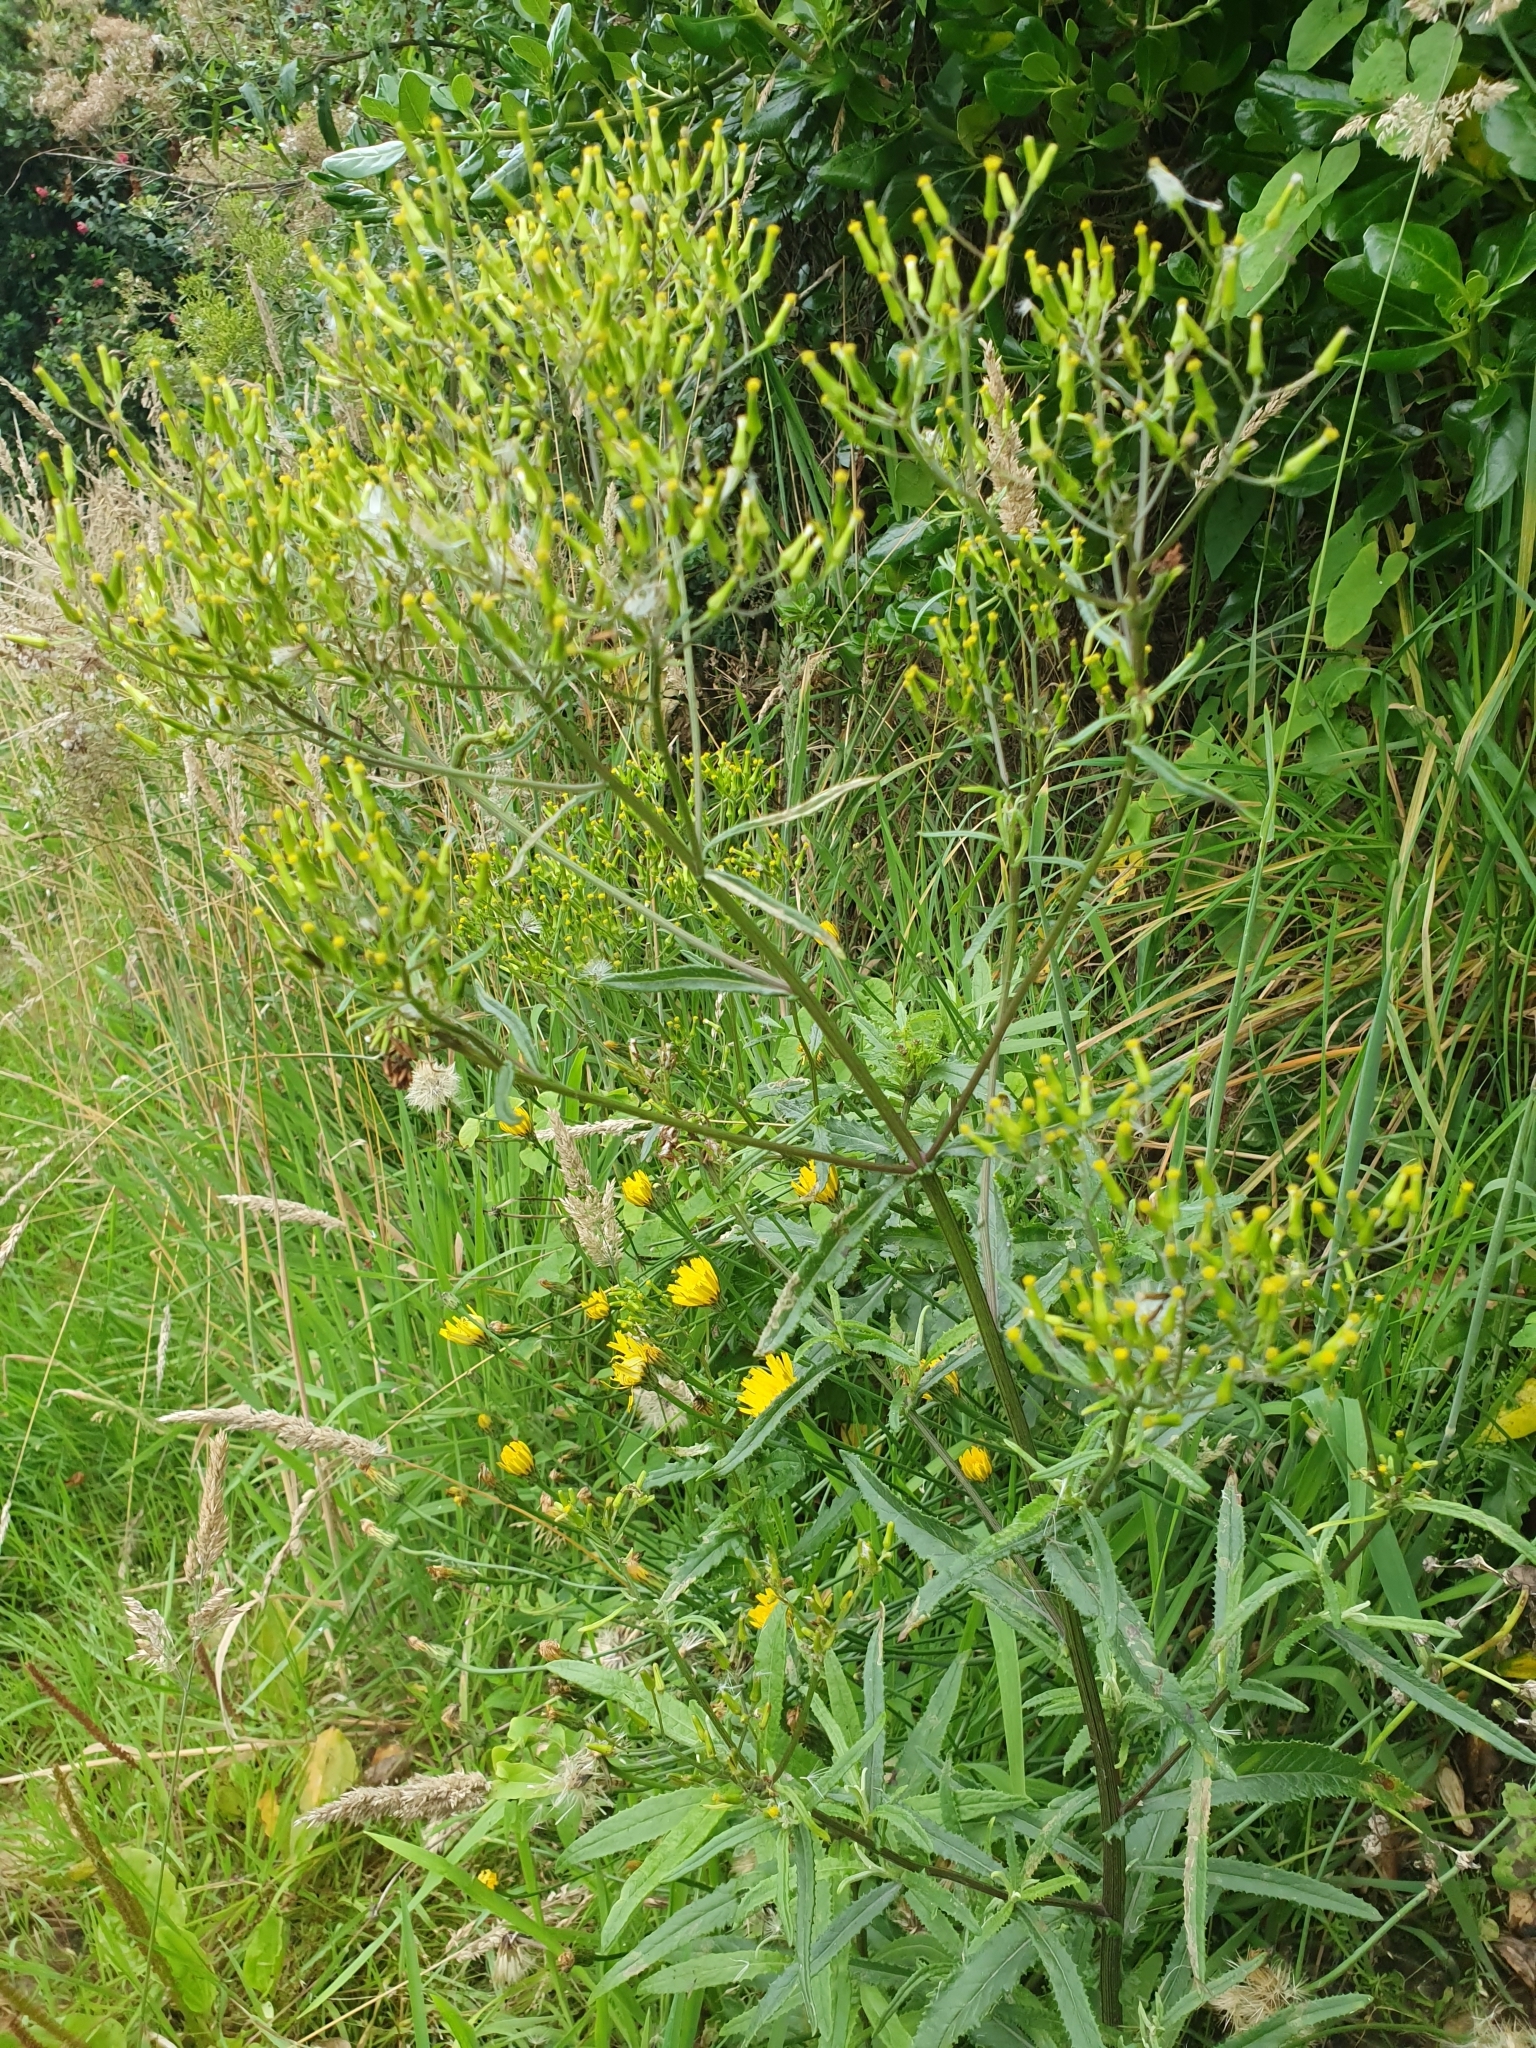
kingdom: Plantae
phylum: Tracheophyta
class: Magnoliopsida
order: Asterales
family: Asteraceae
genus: Senecio
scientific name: Senecio minimus
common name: Toothed fireweed
